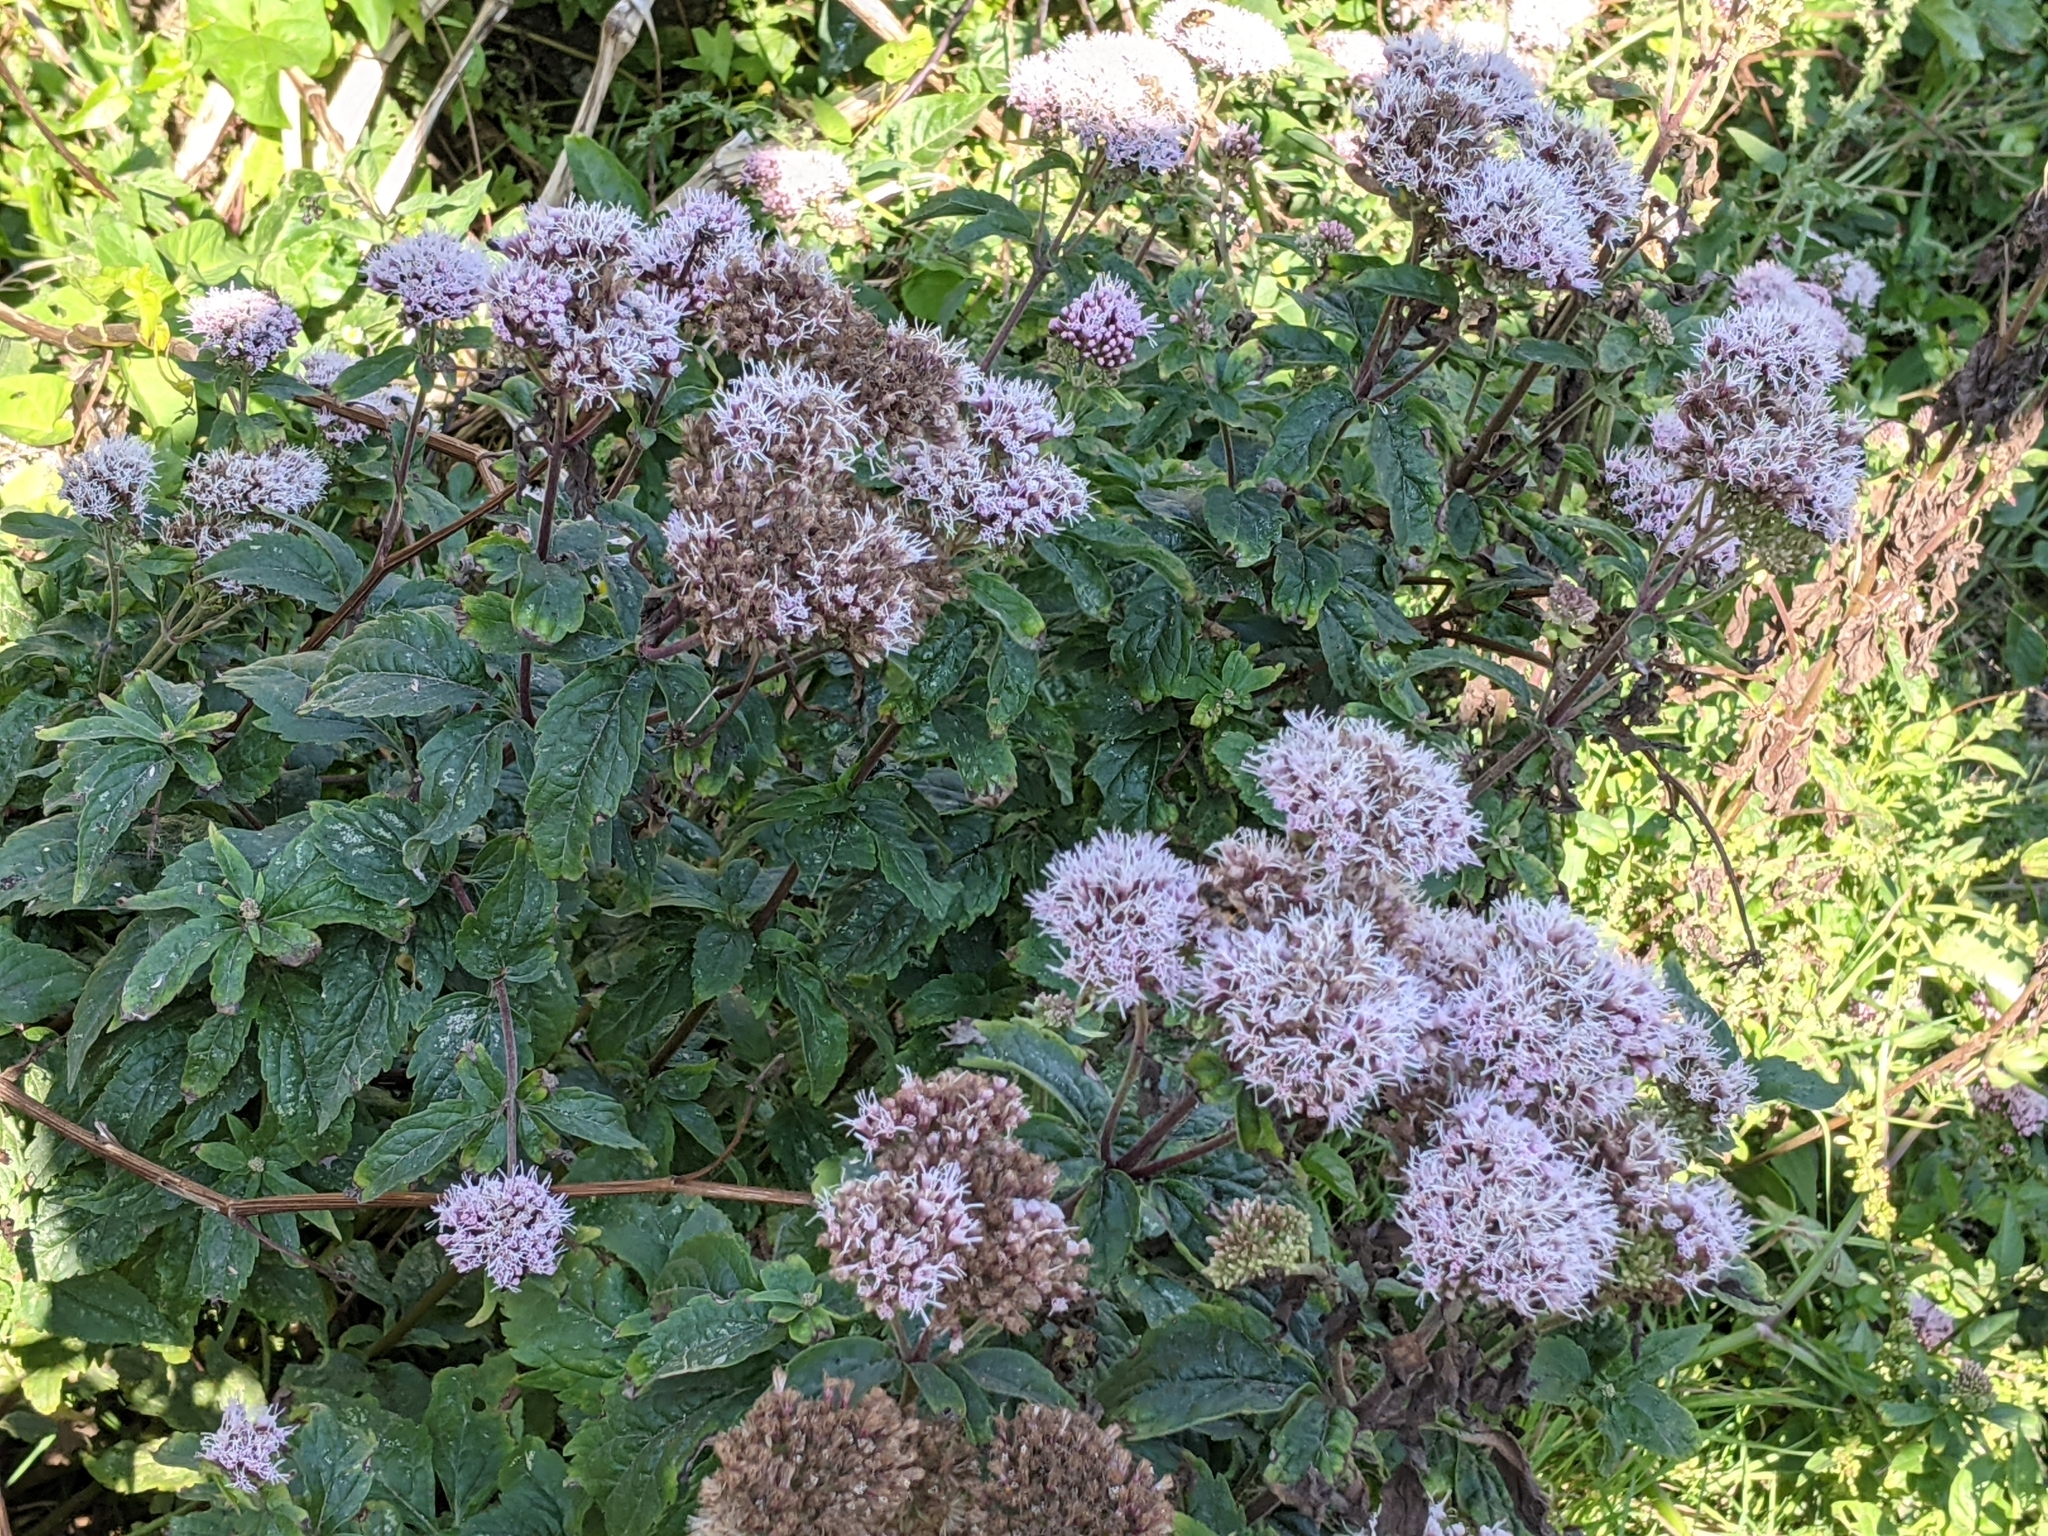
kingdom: Plantae
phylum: Tracheophyta
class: Magnoliopsida
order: Asterales
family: Asteraceae
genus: Eupatorium
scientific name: Eupatorium cannabinum
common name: Hemp-agrimony
